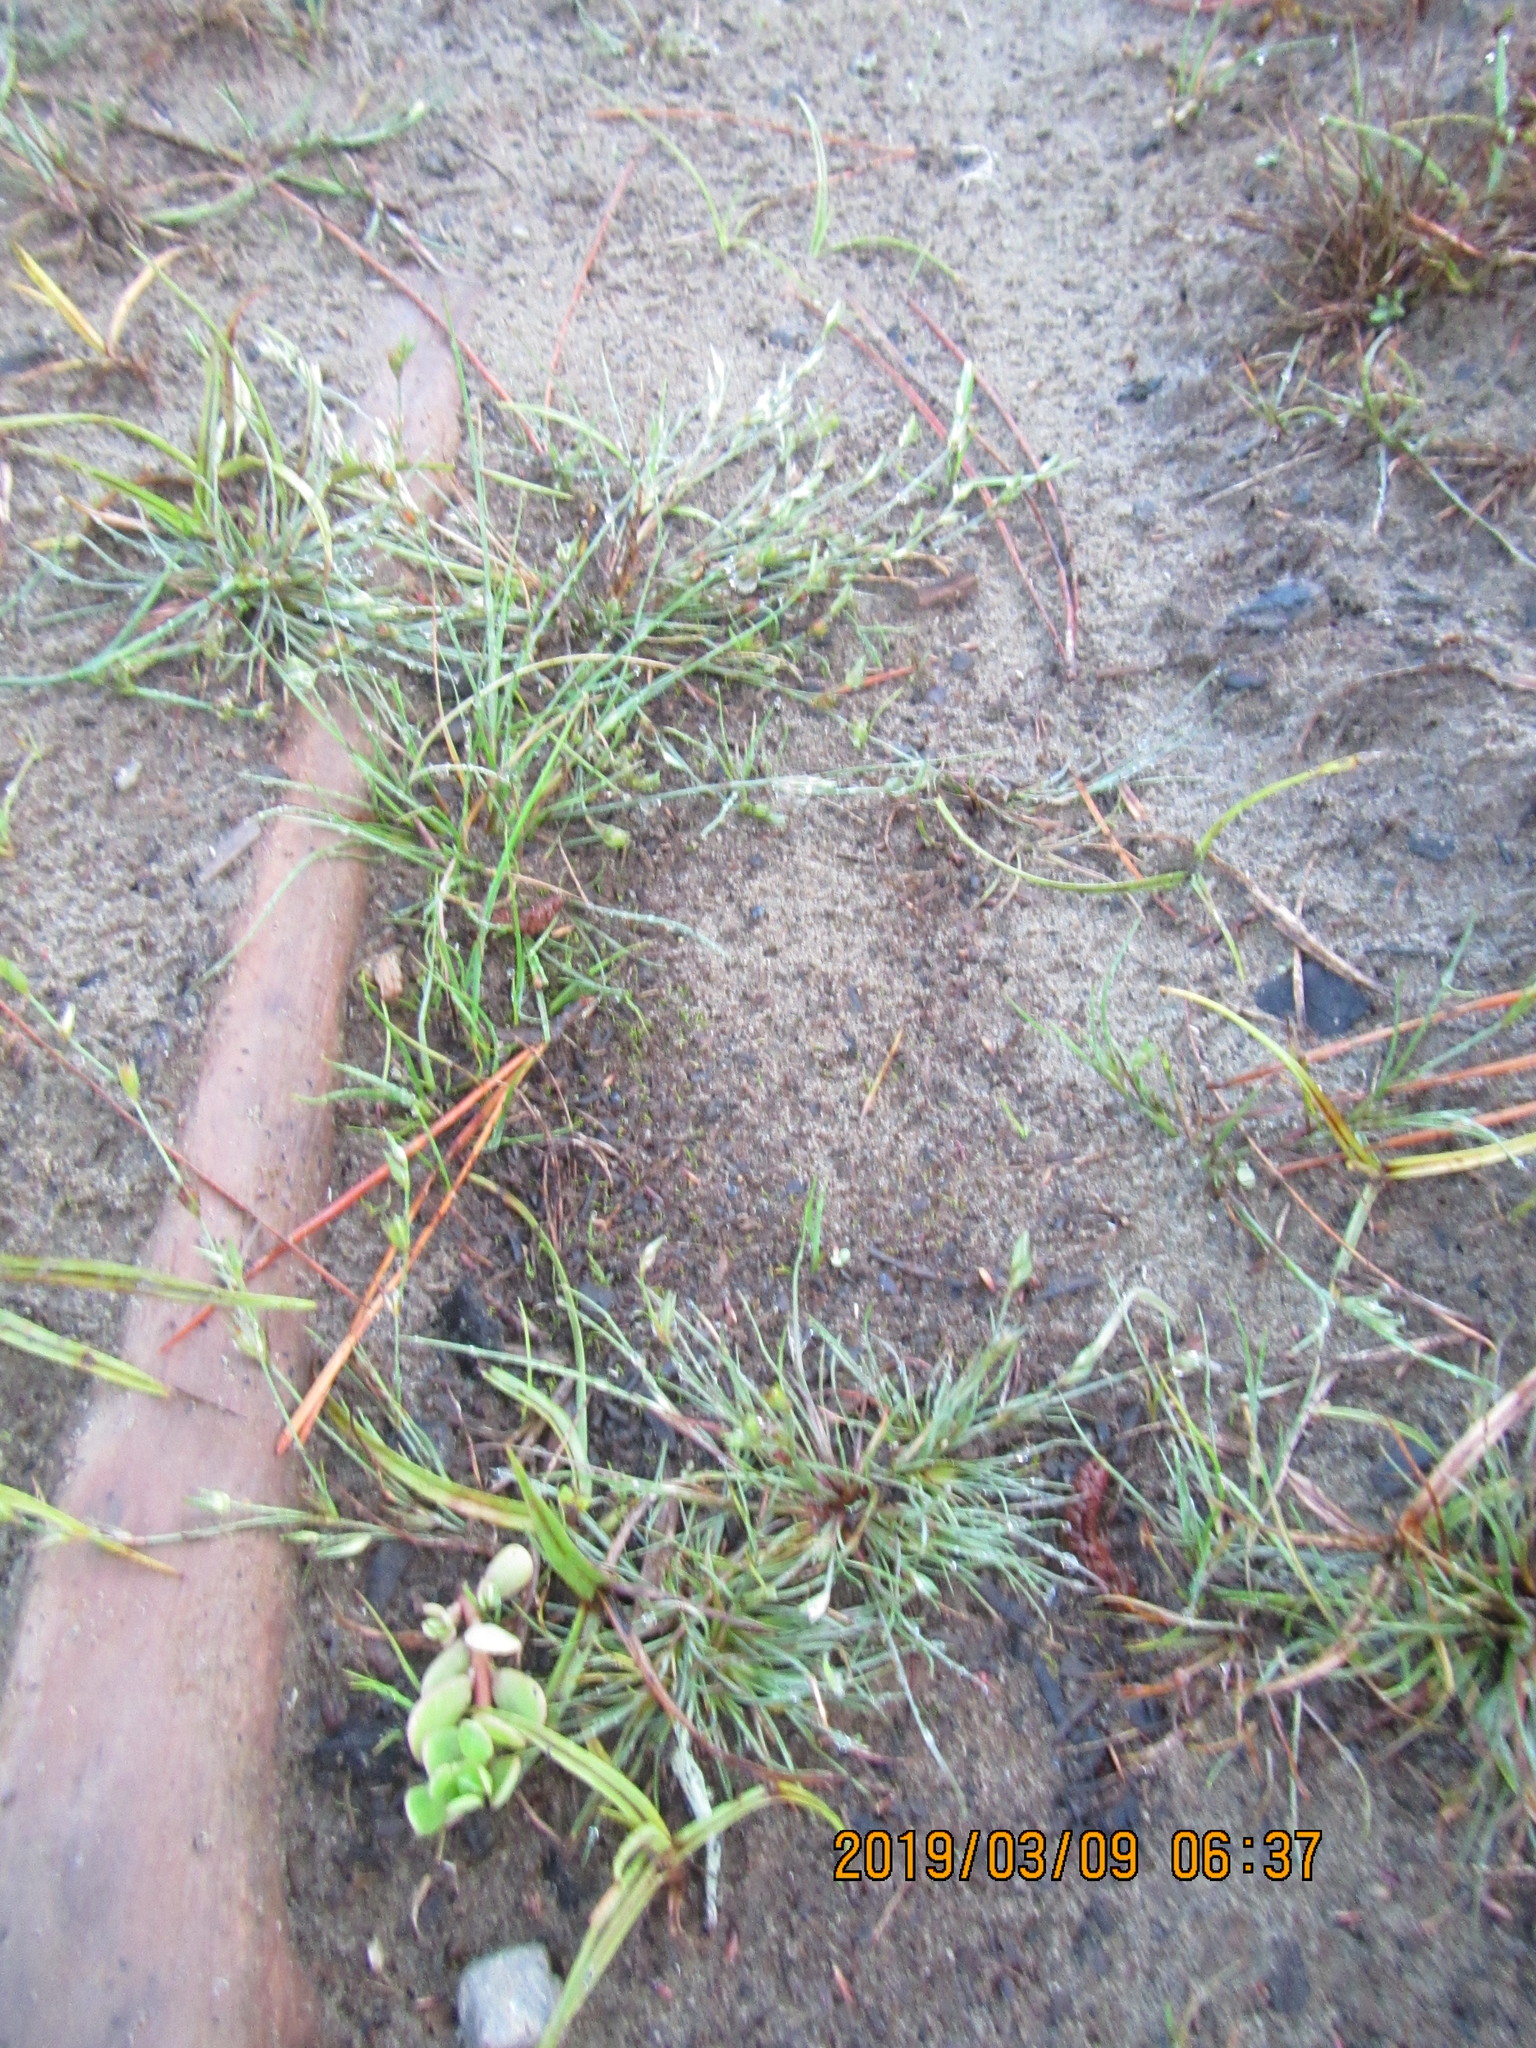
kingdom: Plantae
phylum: Tracheophyta
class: Liliopsida
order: Poales
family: Juncaceae
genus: Juncus
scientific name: Juncus bufonius
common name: Toad rush
